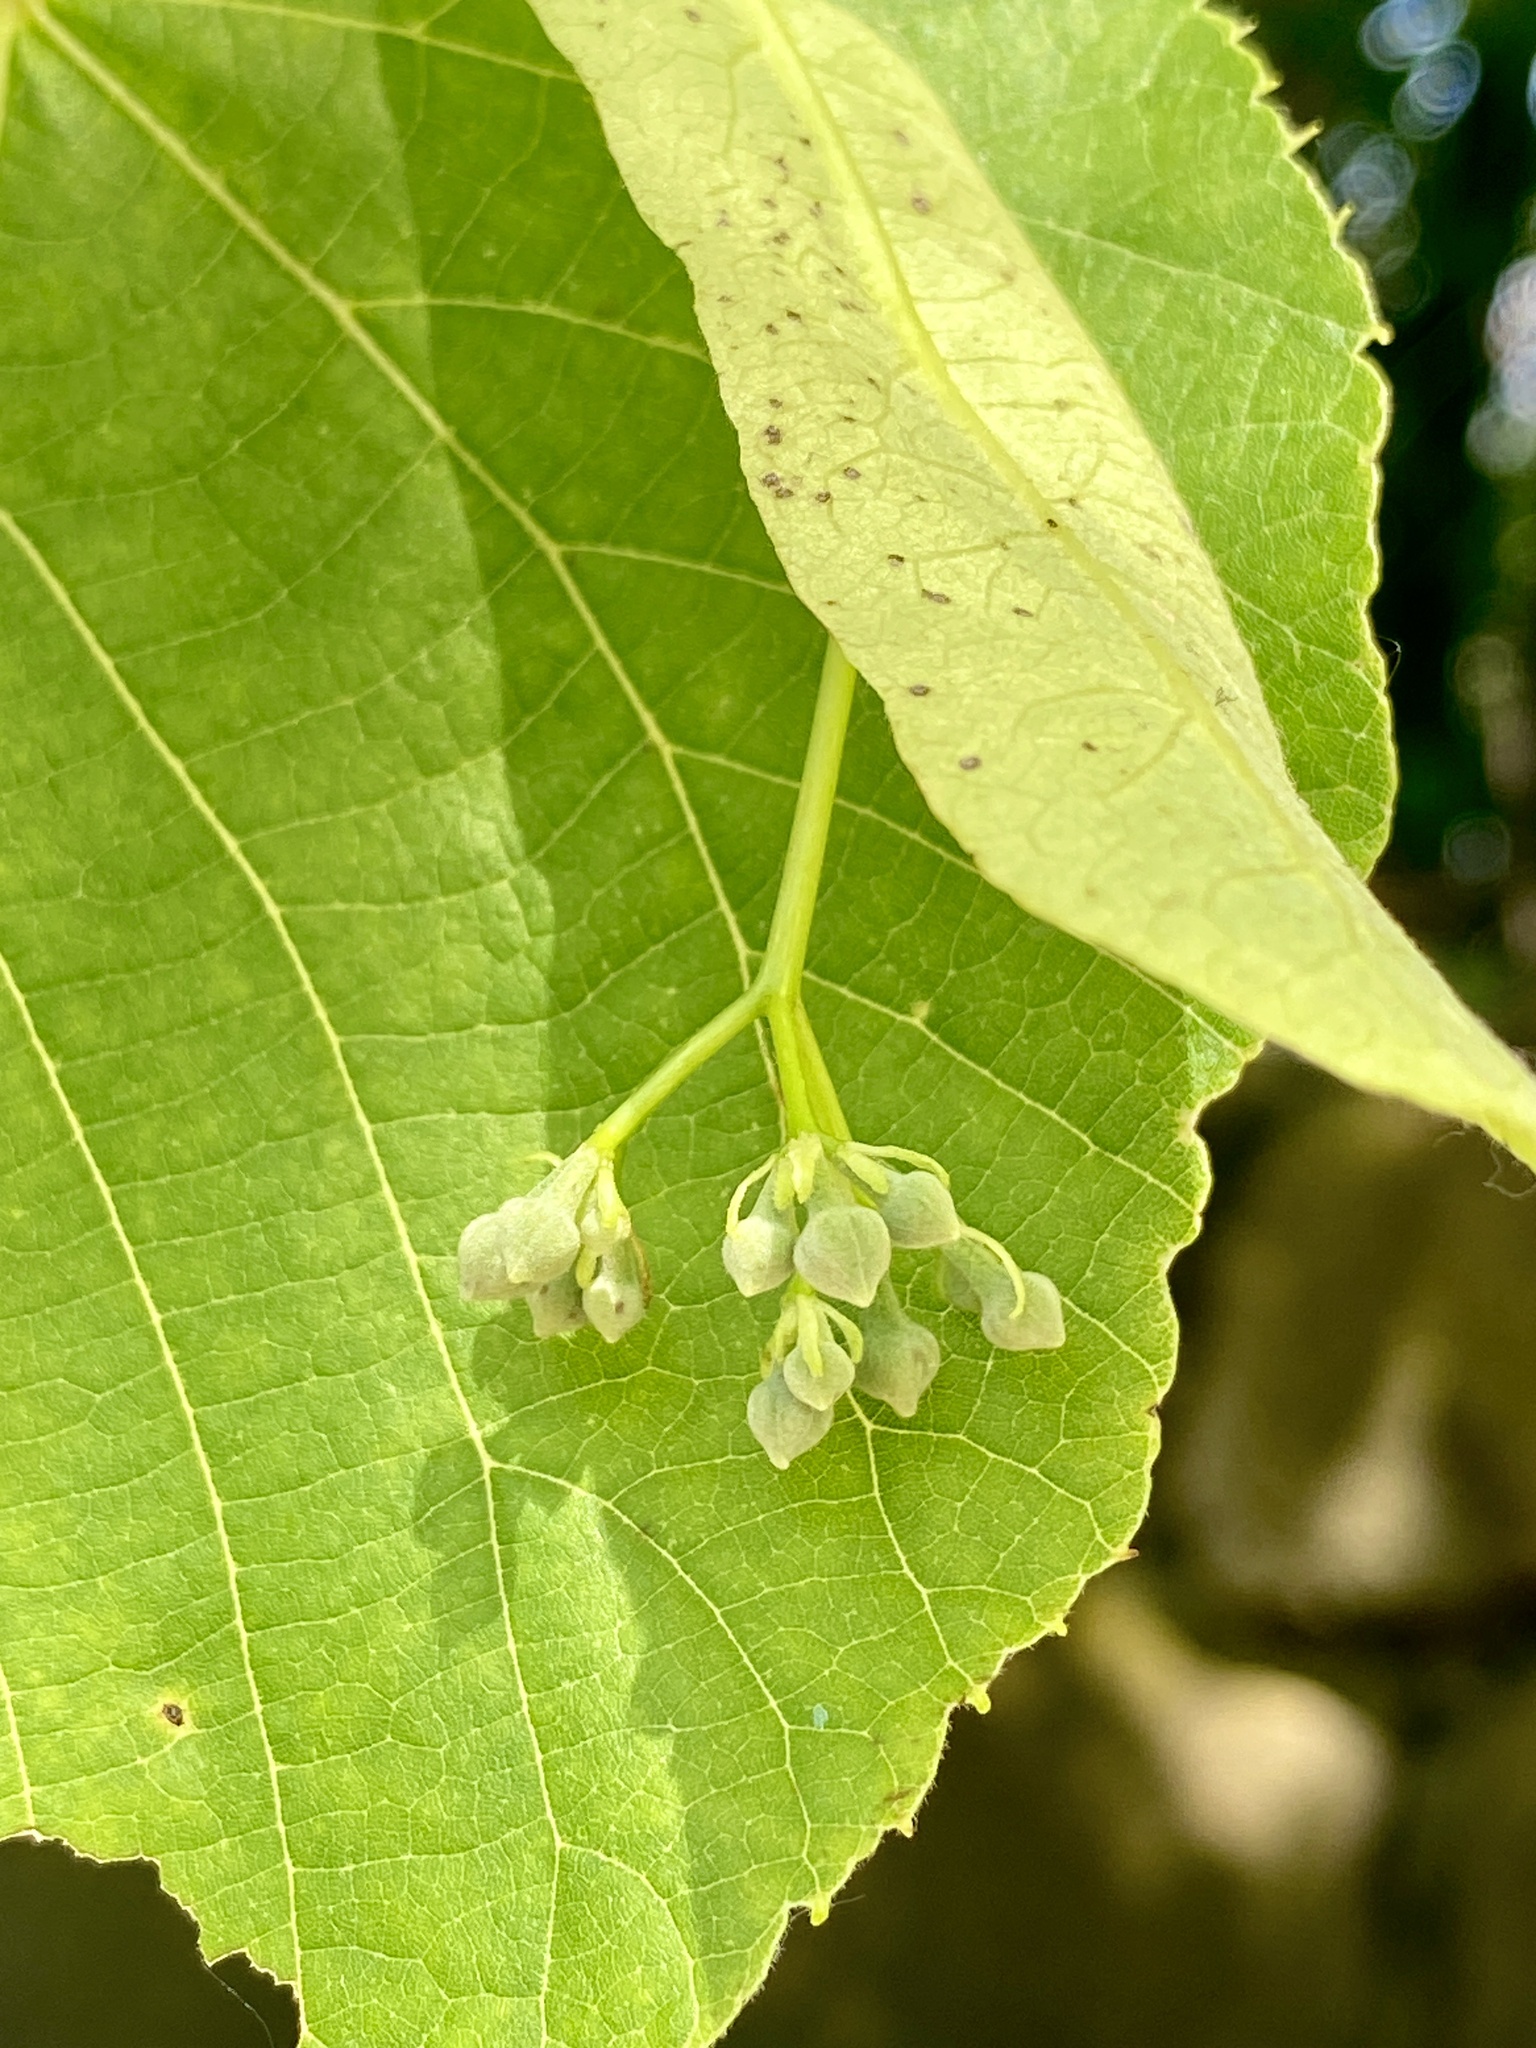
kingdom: Plantae
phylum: Tracheophyta
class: Magnoliopsida
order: Malvales
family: Malvaceae
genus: Tilia
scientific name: Tilia americana
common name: Basswood
